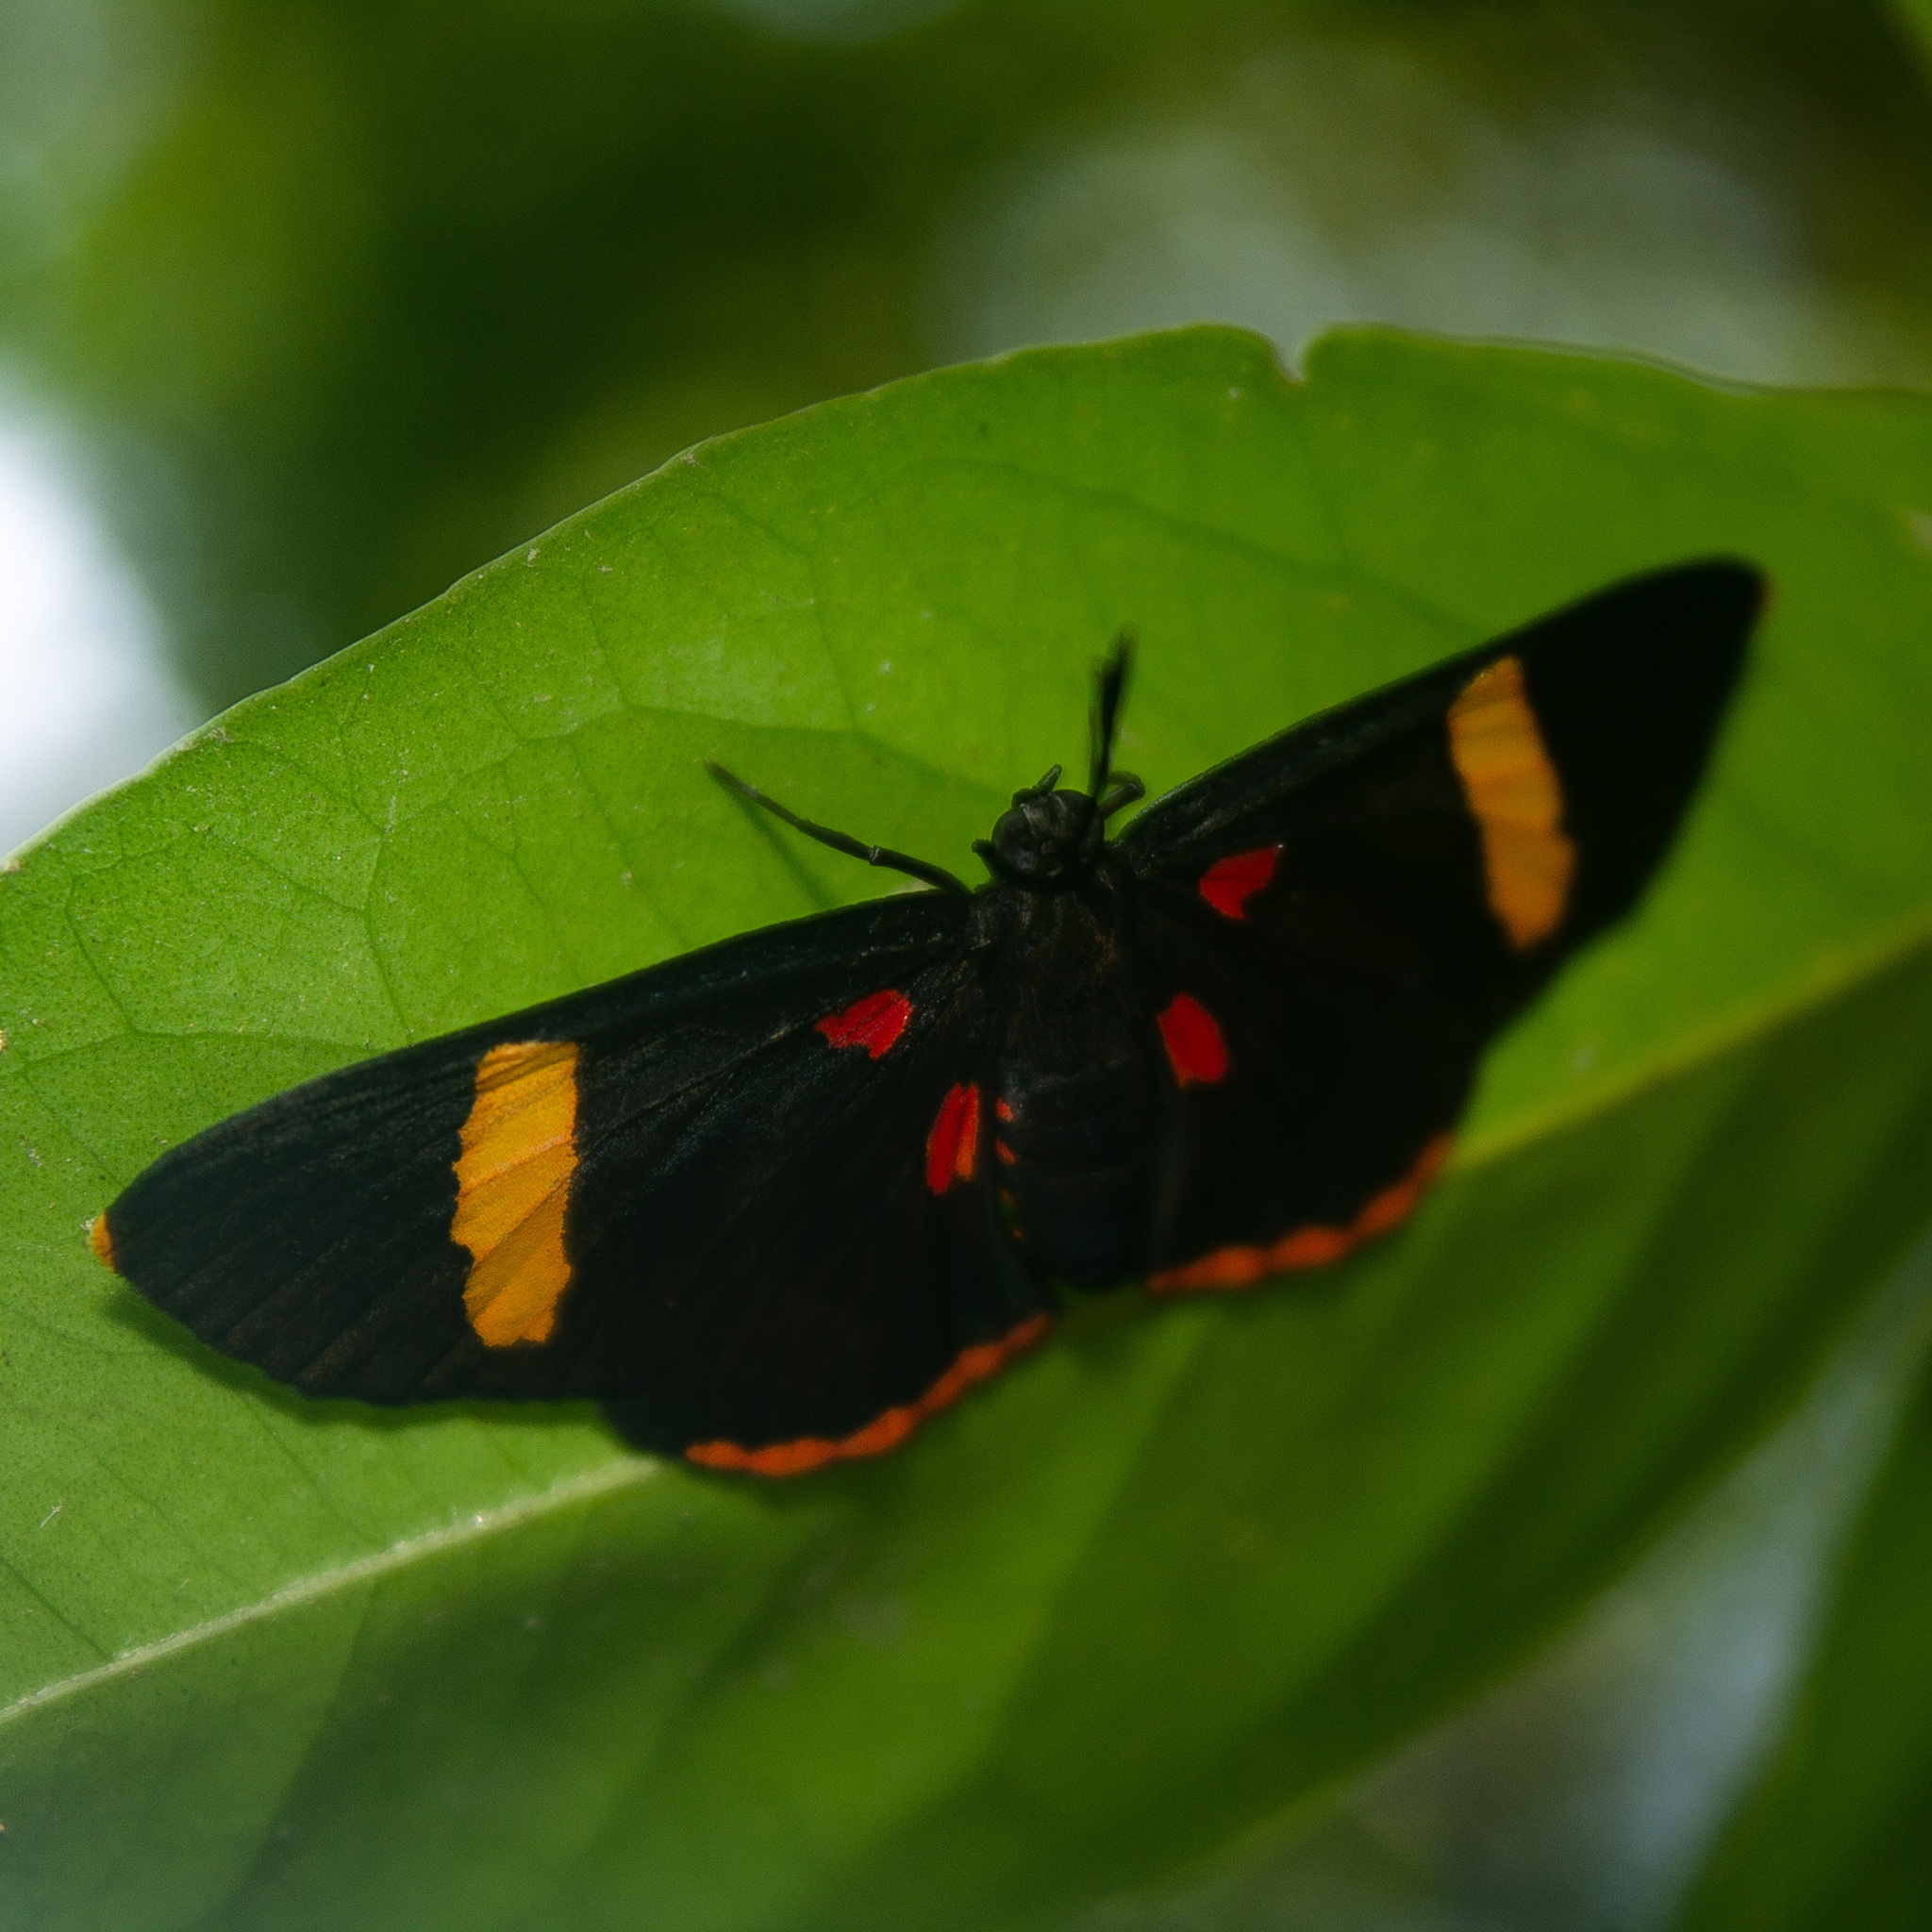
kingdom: Animalia
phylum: Arthropoda
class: Insecta
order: Lepidoptera
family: Lycaenidae
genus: Melanis
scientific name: Melanis electron
